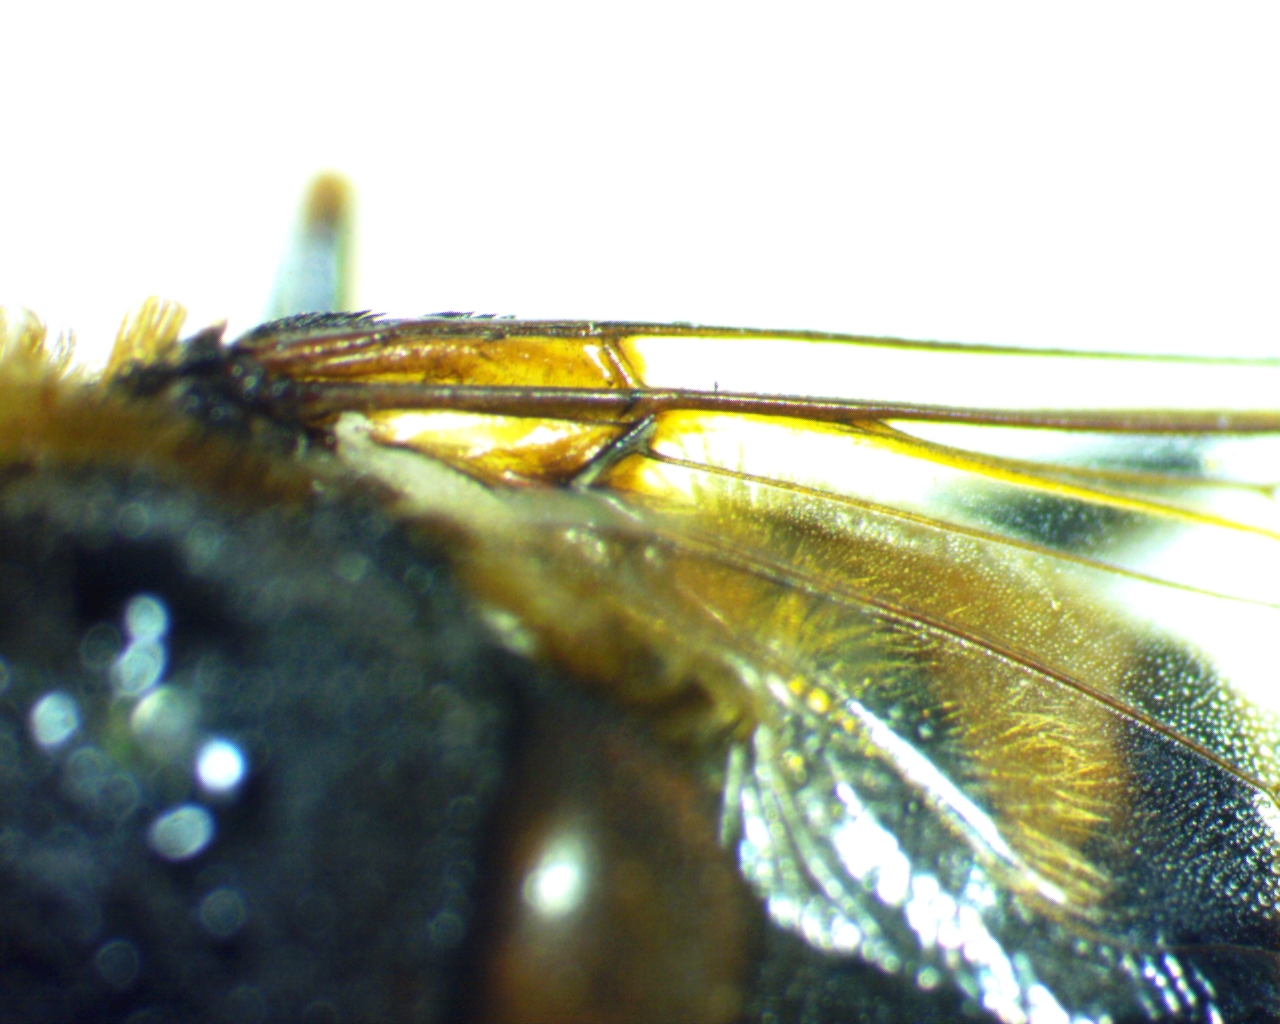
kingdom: Animalia
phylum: Arthropoda
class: Insecta
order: Diptera
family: Syrphidae
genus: Eristalis
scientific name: Eristalis dimidiata
